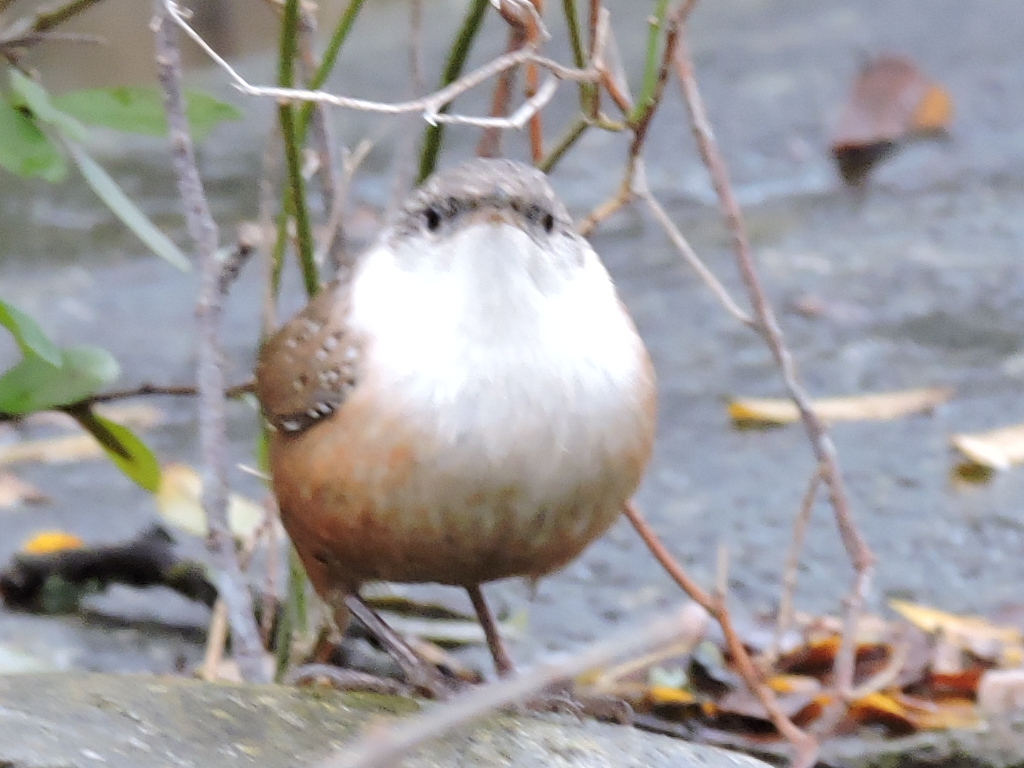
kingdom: Animalia
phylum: Chordata
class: Aves
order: Passeriformes
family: Troglodytidae
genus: Catherpes
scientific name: Catherpes mexicanus
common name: Canyon wren
